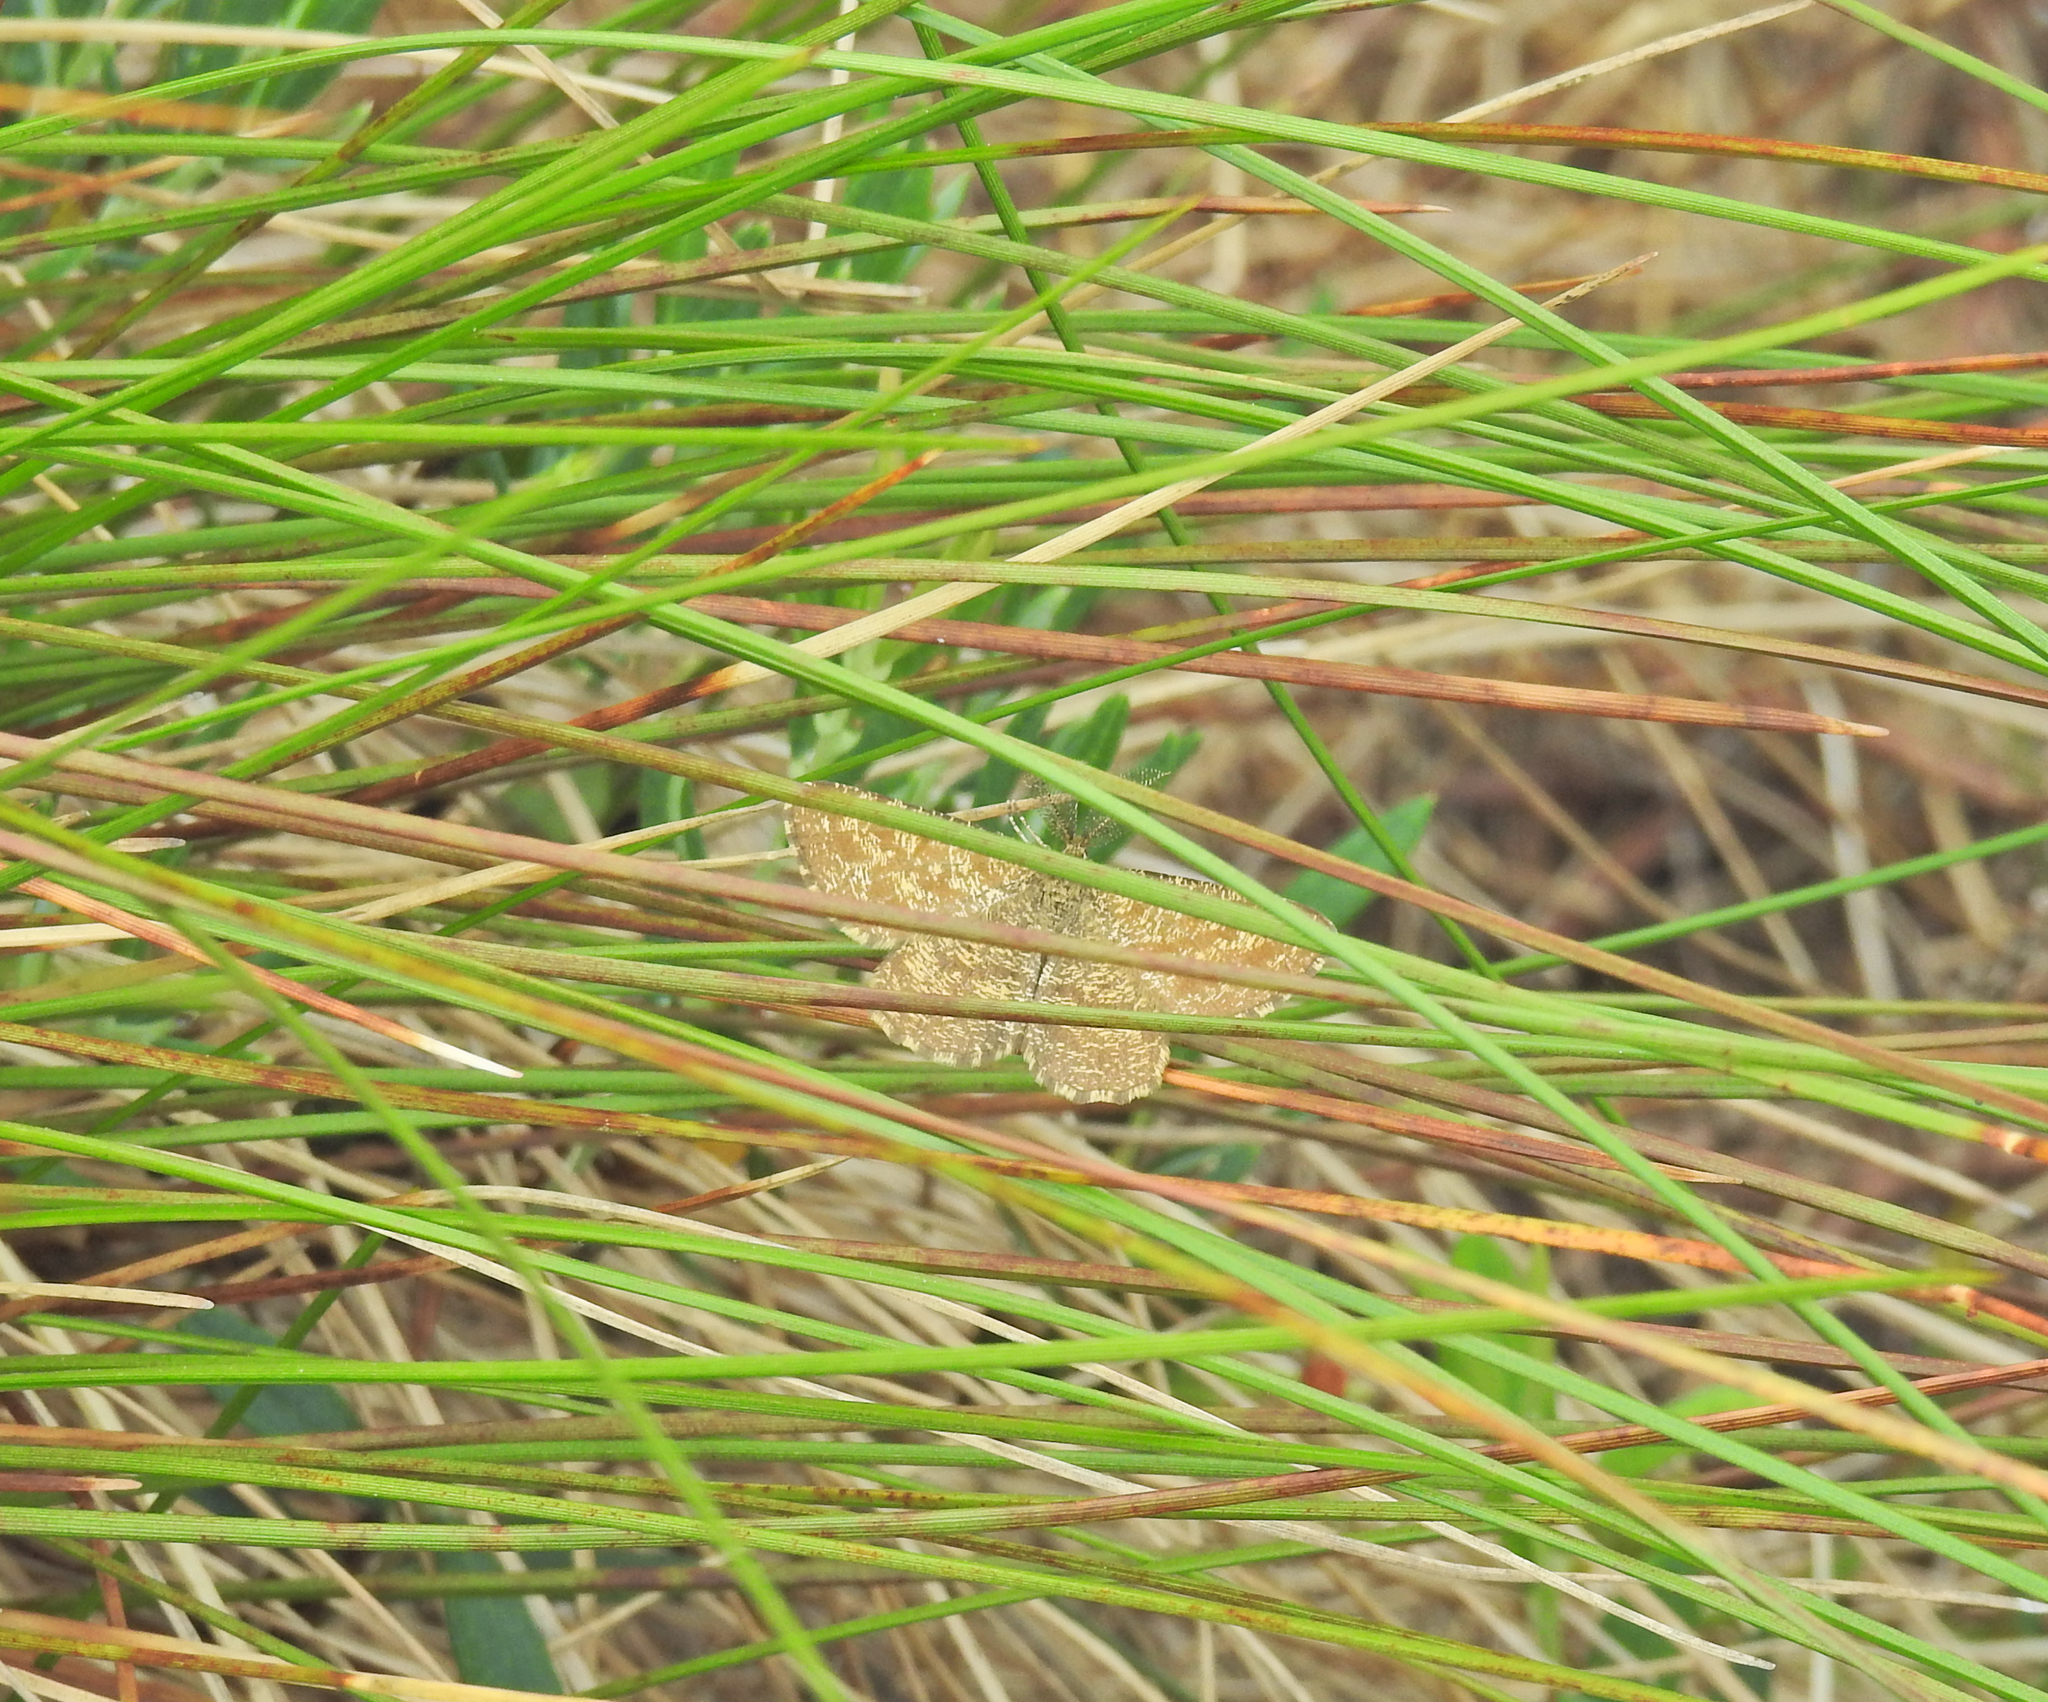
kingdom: Animalia
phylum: Arthropoda
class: Insecta
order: Lepidoptera
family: Geometridae
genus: Ematurga
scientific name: Ematurga atomaria
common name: Common heath
